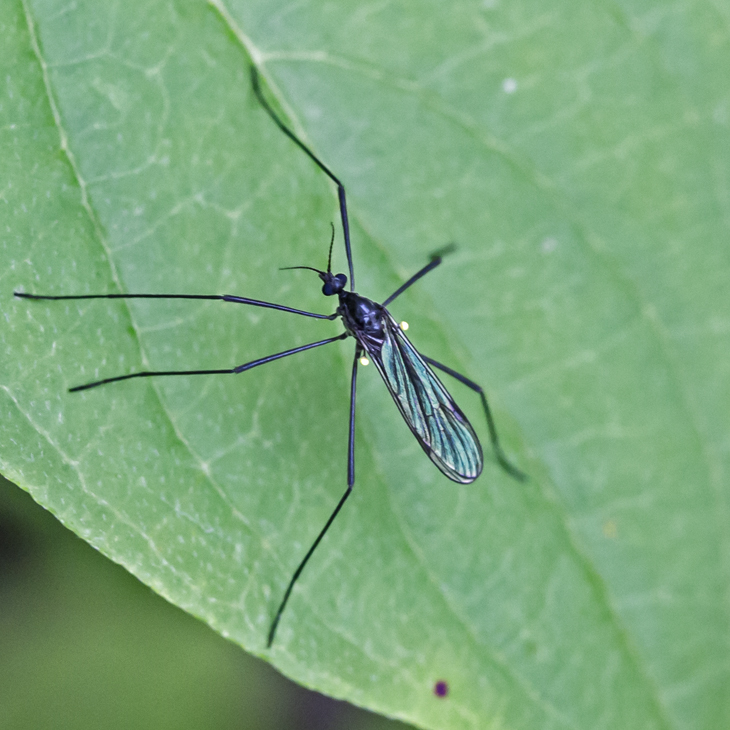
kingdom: Animalia
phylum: Arthropoda
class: Insecta
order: Diptera
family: Limoniidae
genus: Gnophomyia
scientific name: Gnophomyia tristissima
